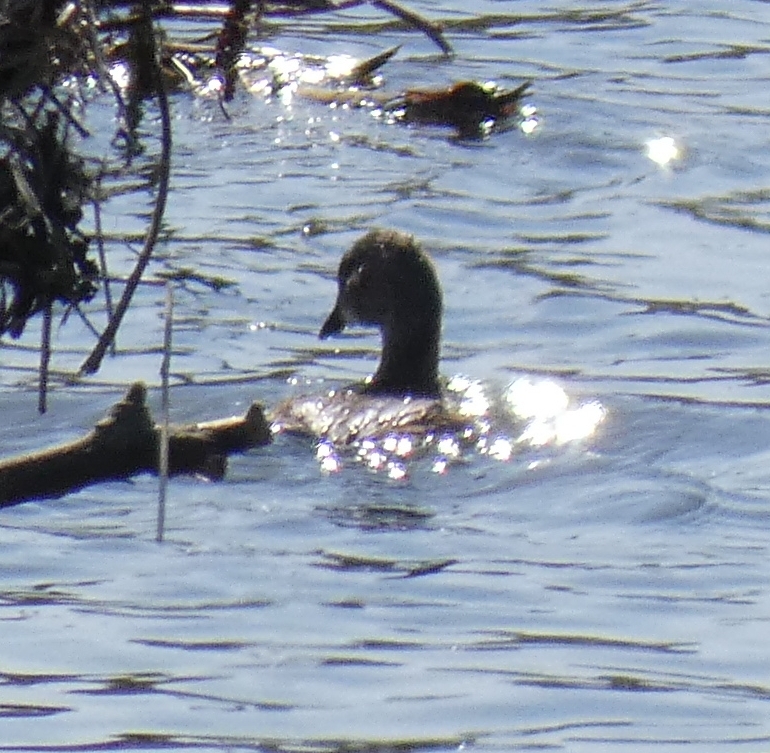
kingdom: Animalia
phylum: Chordata
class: Aves
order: Podicipediformes
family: Podicipedidae
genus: Tachybaptus
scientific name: Tachybaptus ruficollis
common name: Little grebe
